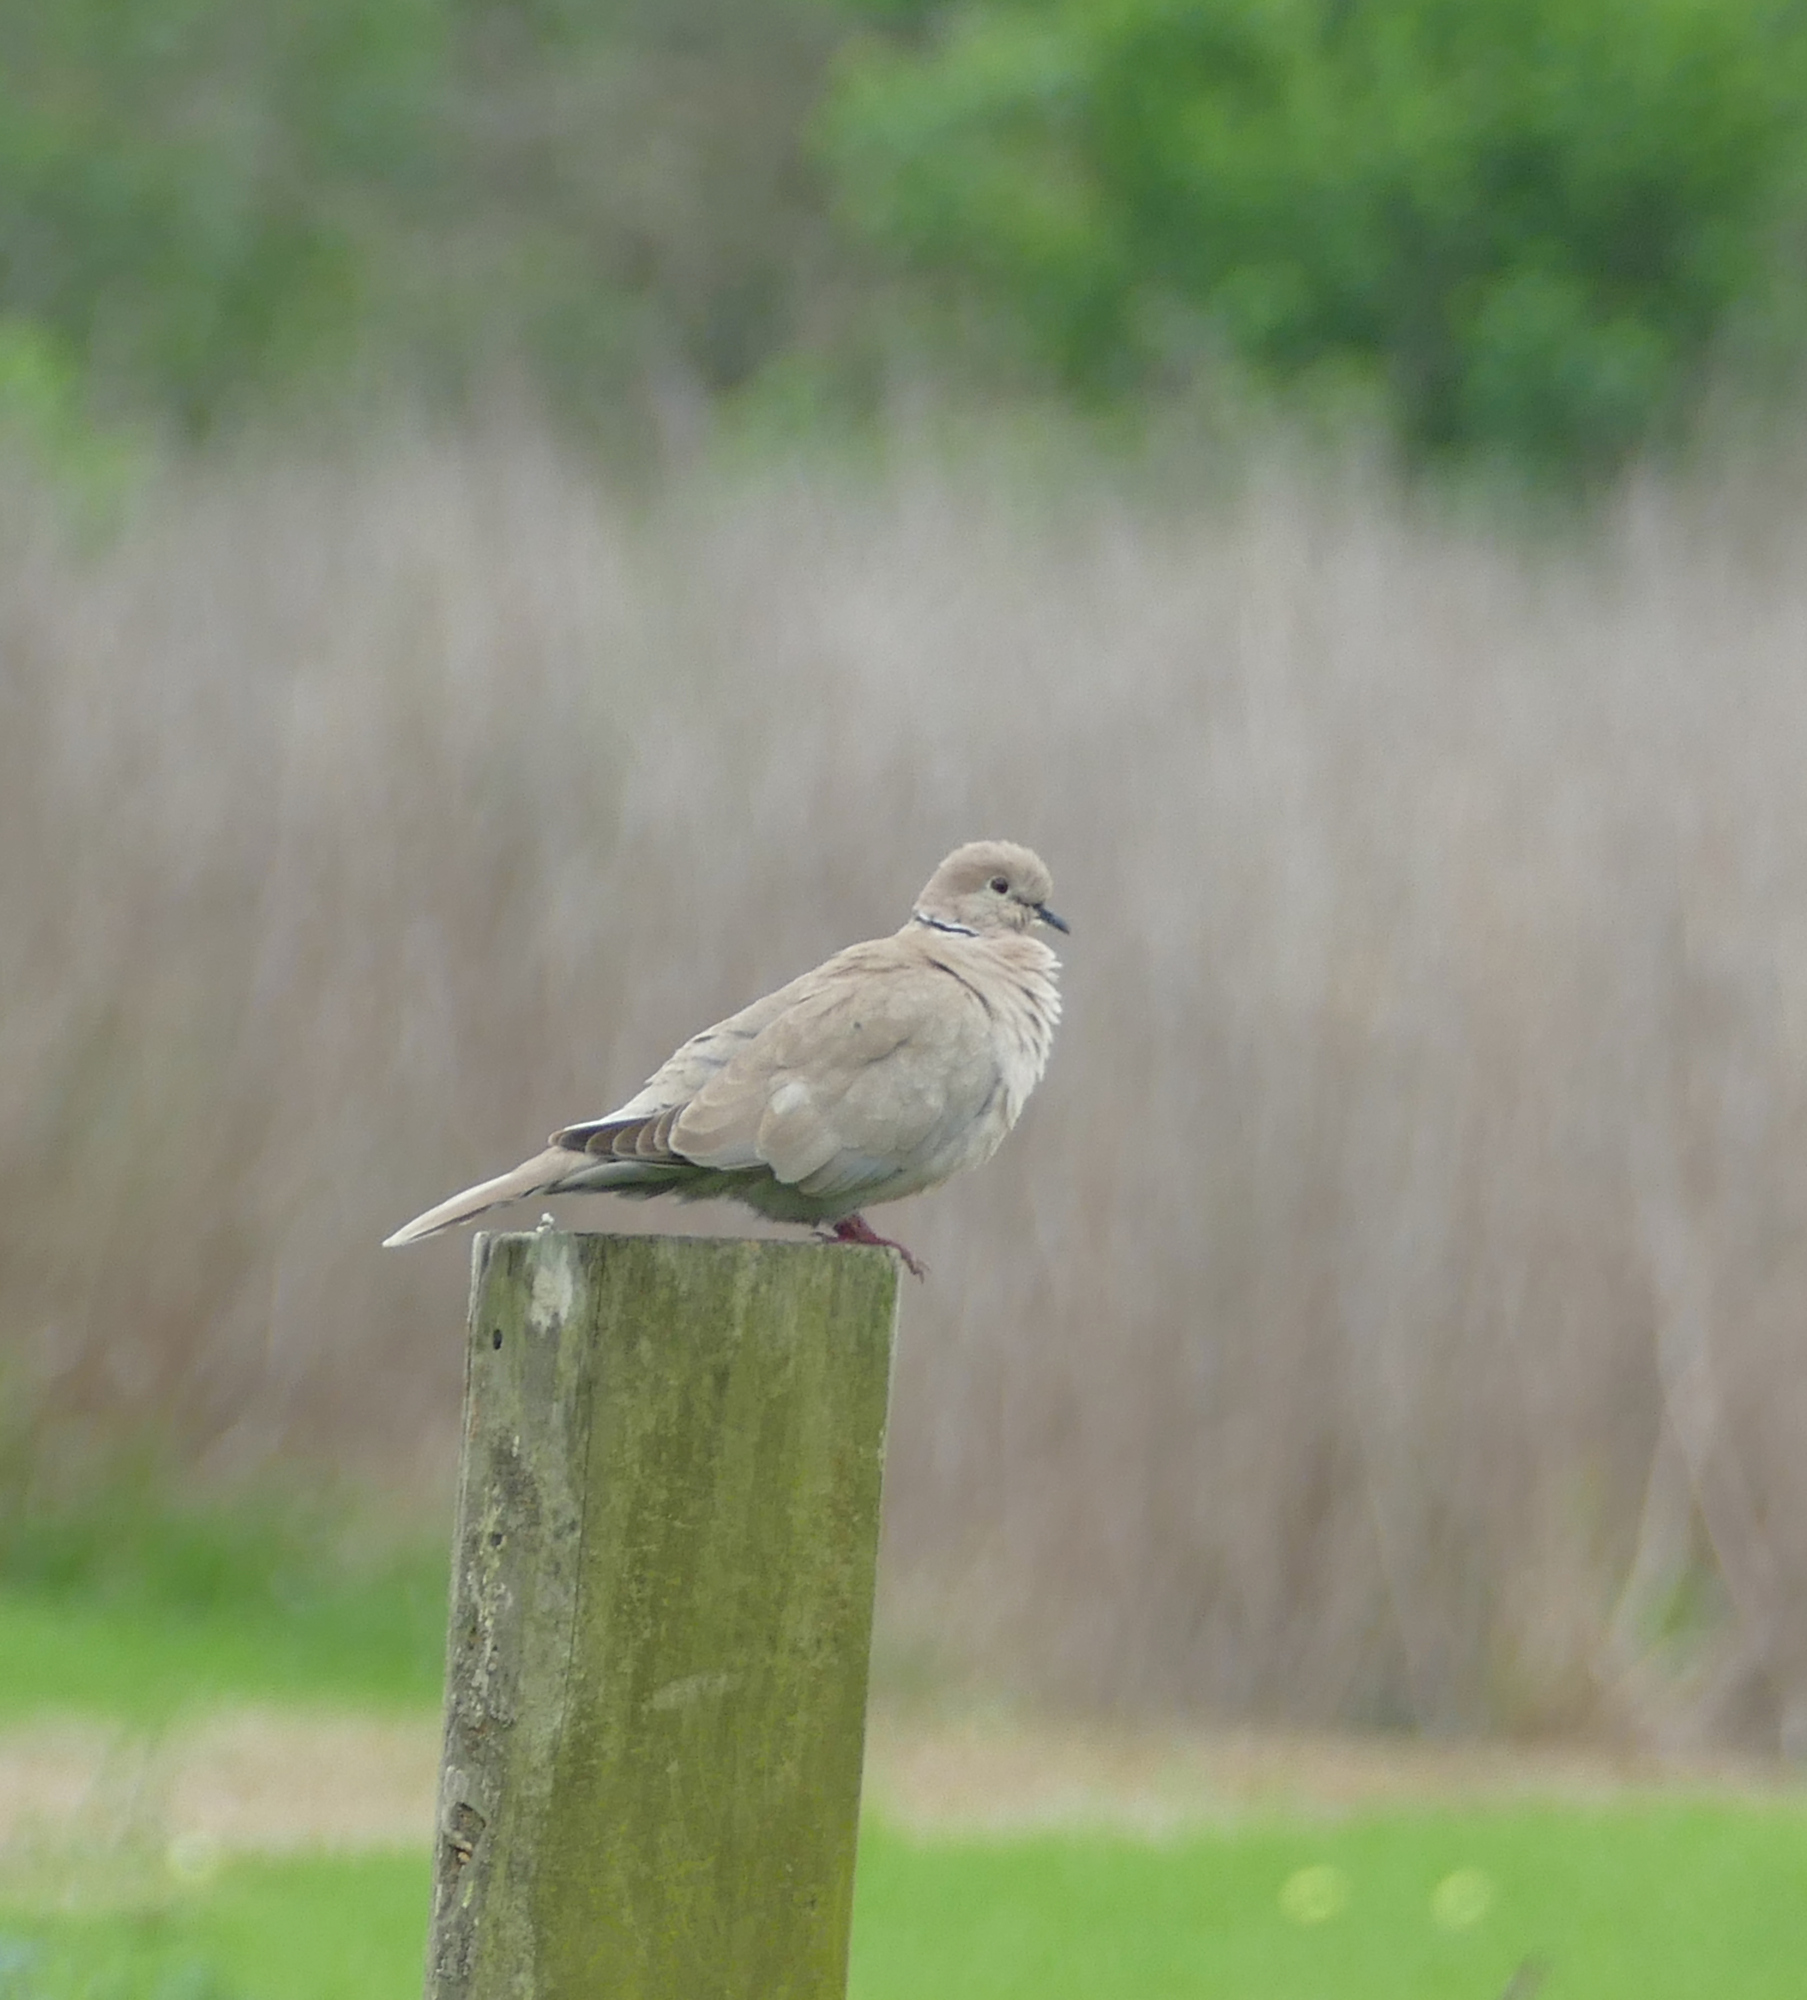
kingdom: Animalia
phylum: Chordata
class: Aves
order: Columbiformes
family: Columbidae
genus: Streptopelia
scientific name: Streptopelia decaocto
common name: Eurasian collared dove
